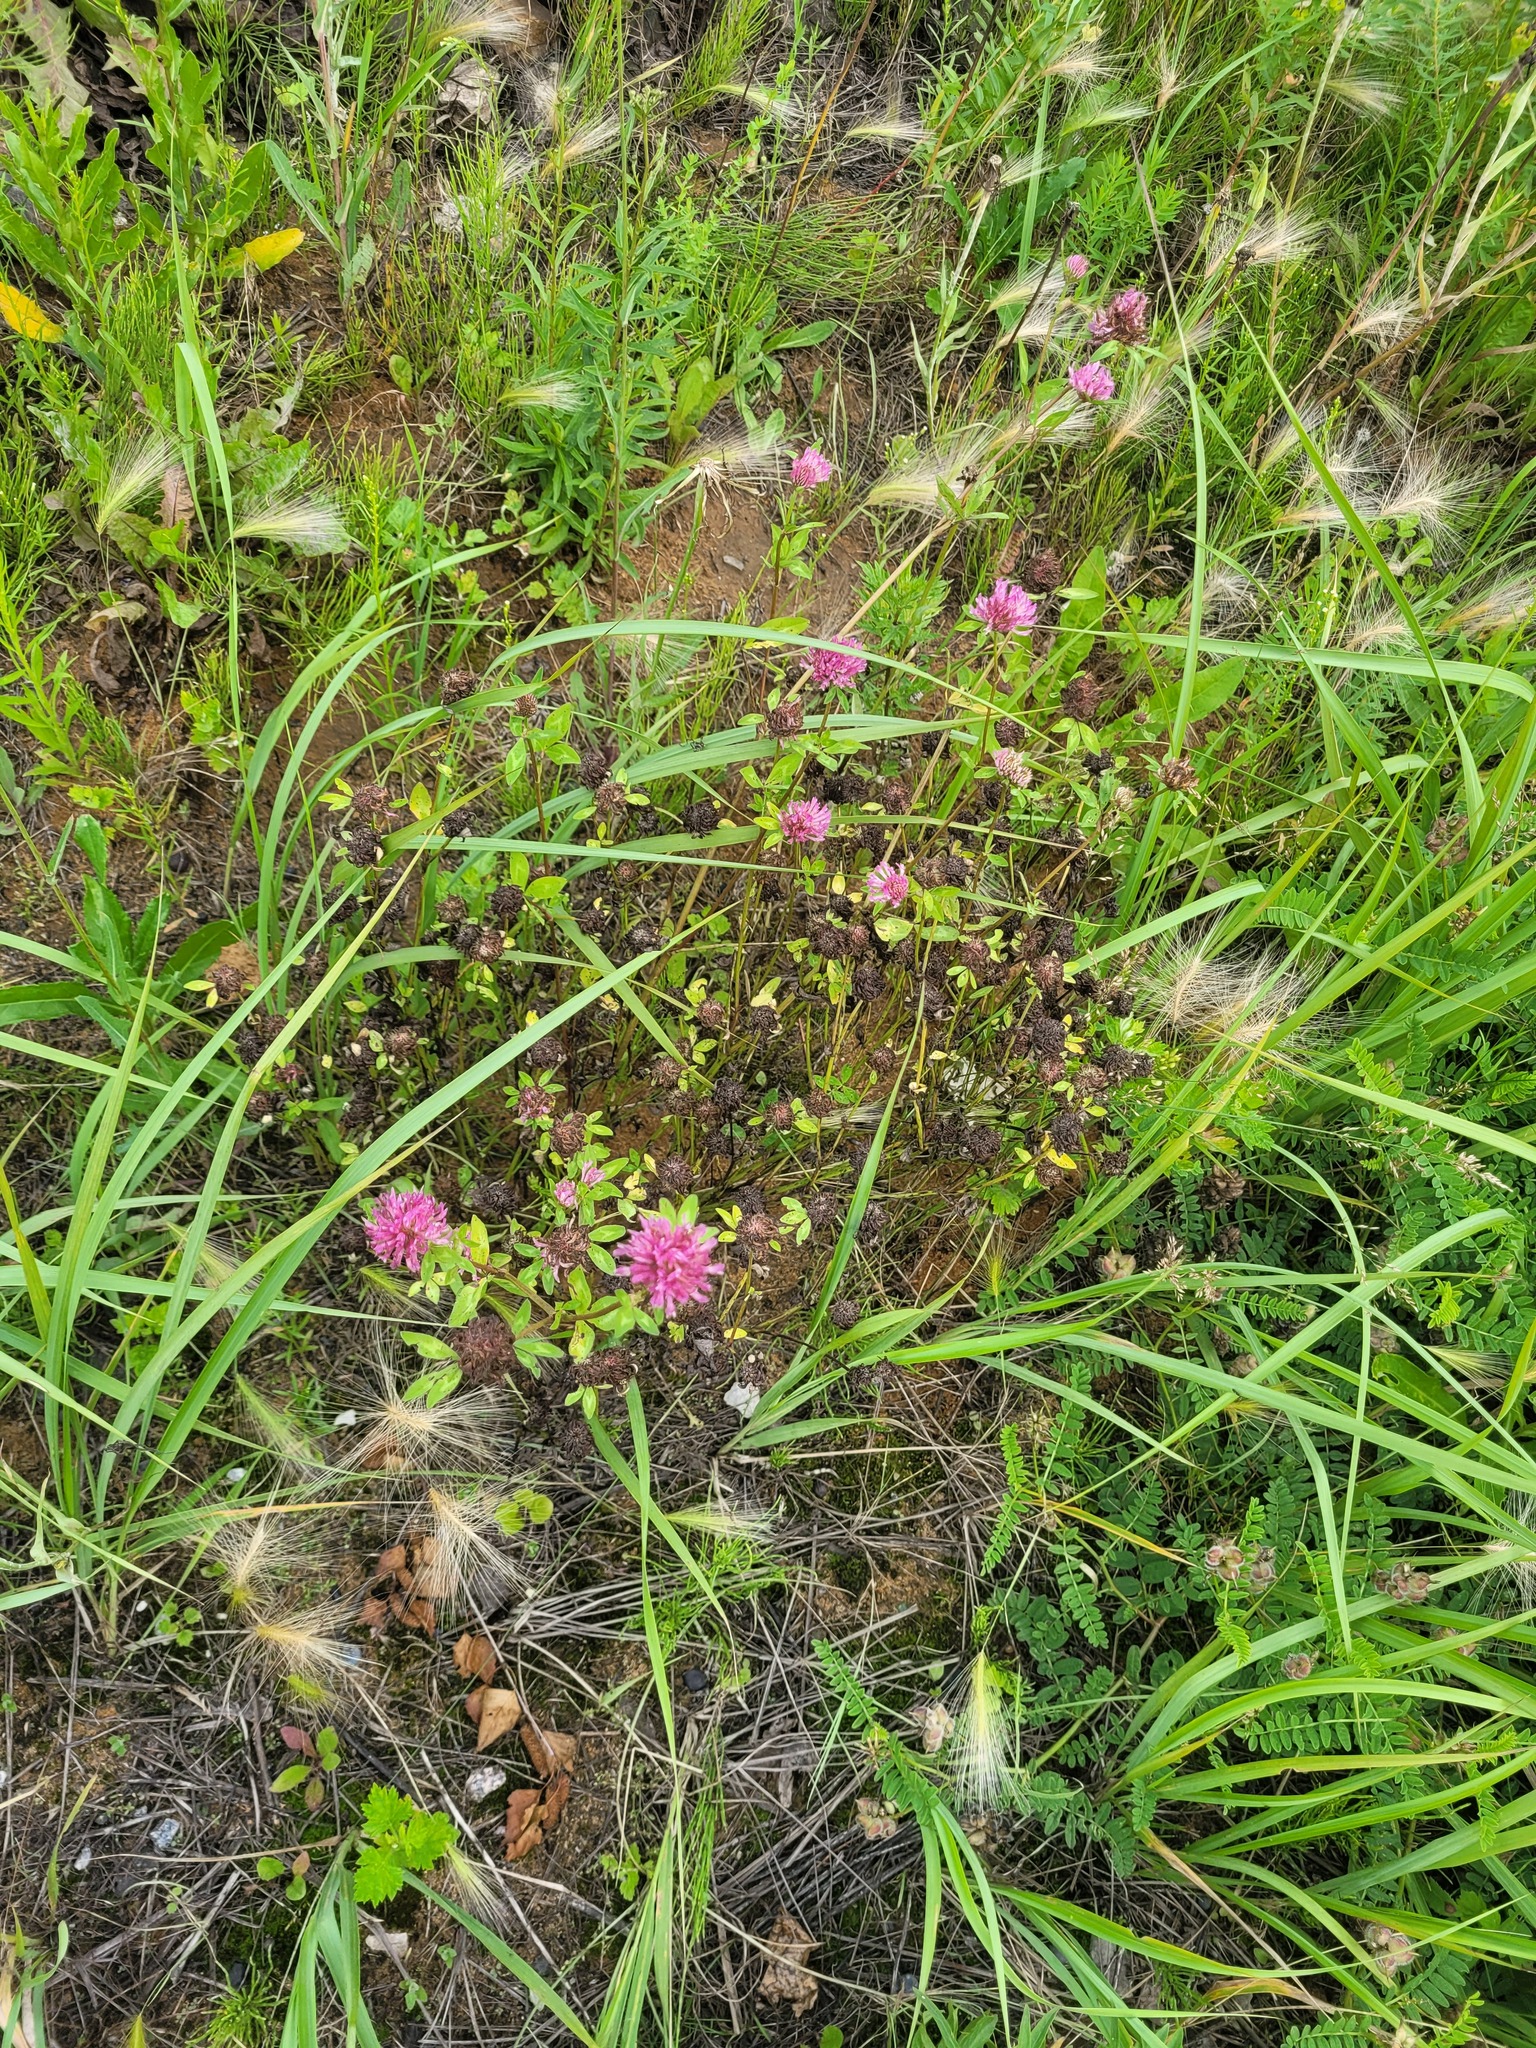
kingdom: Plantae
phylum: Tracheophyta
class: Magnoliopsida
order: Fabales
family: Fabaceae
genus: Trifolium
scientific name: Trifolium pratense
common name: Red clover
